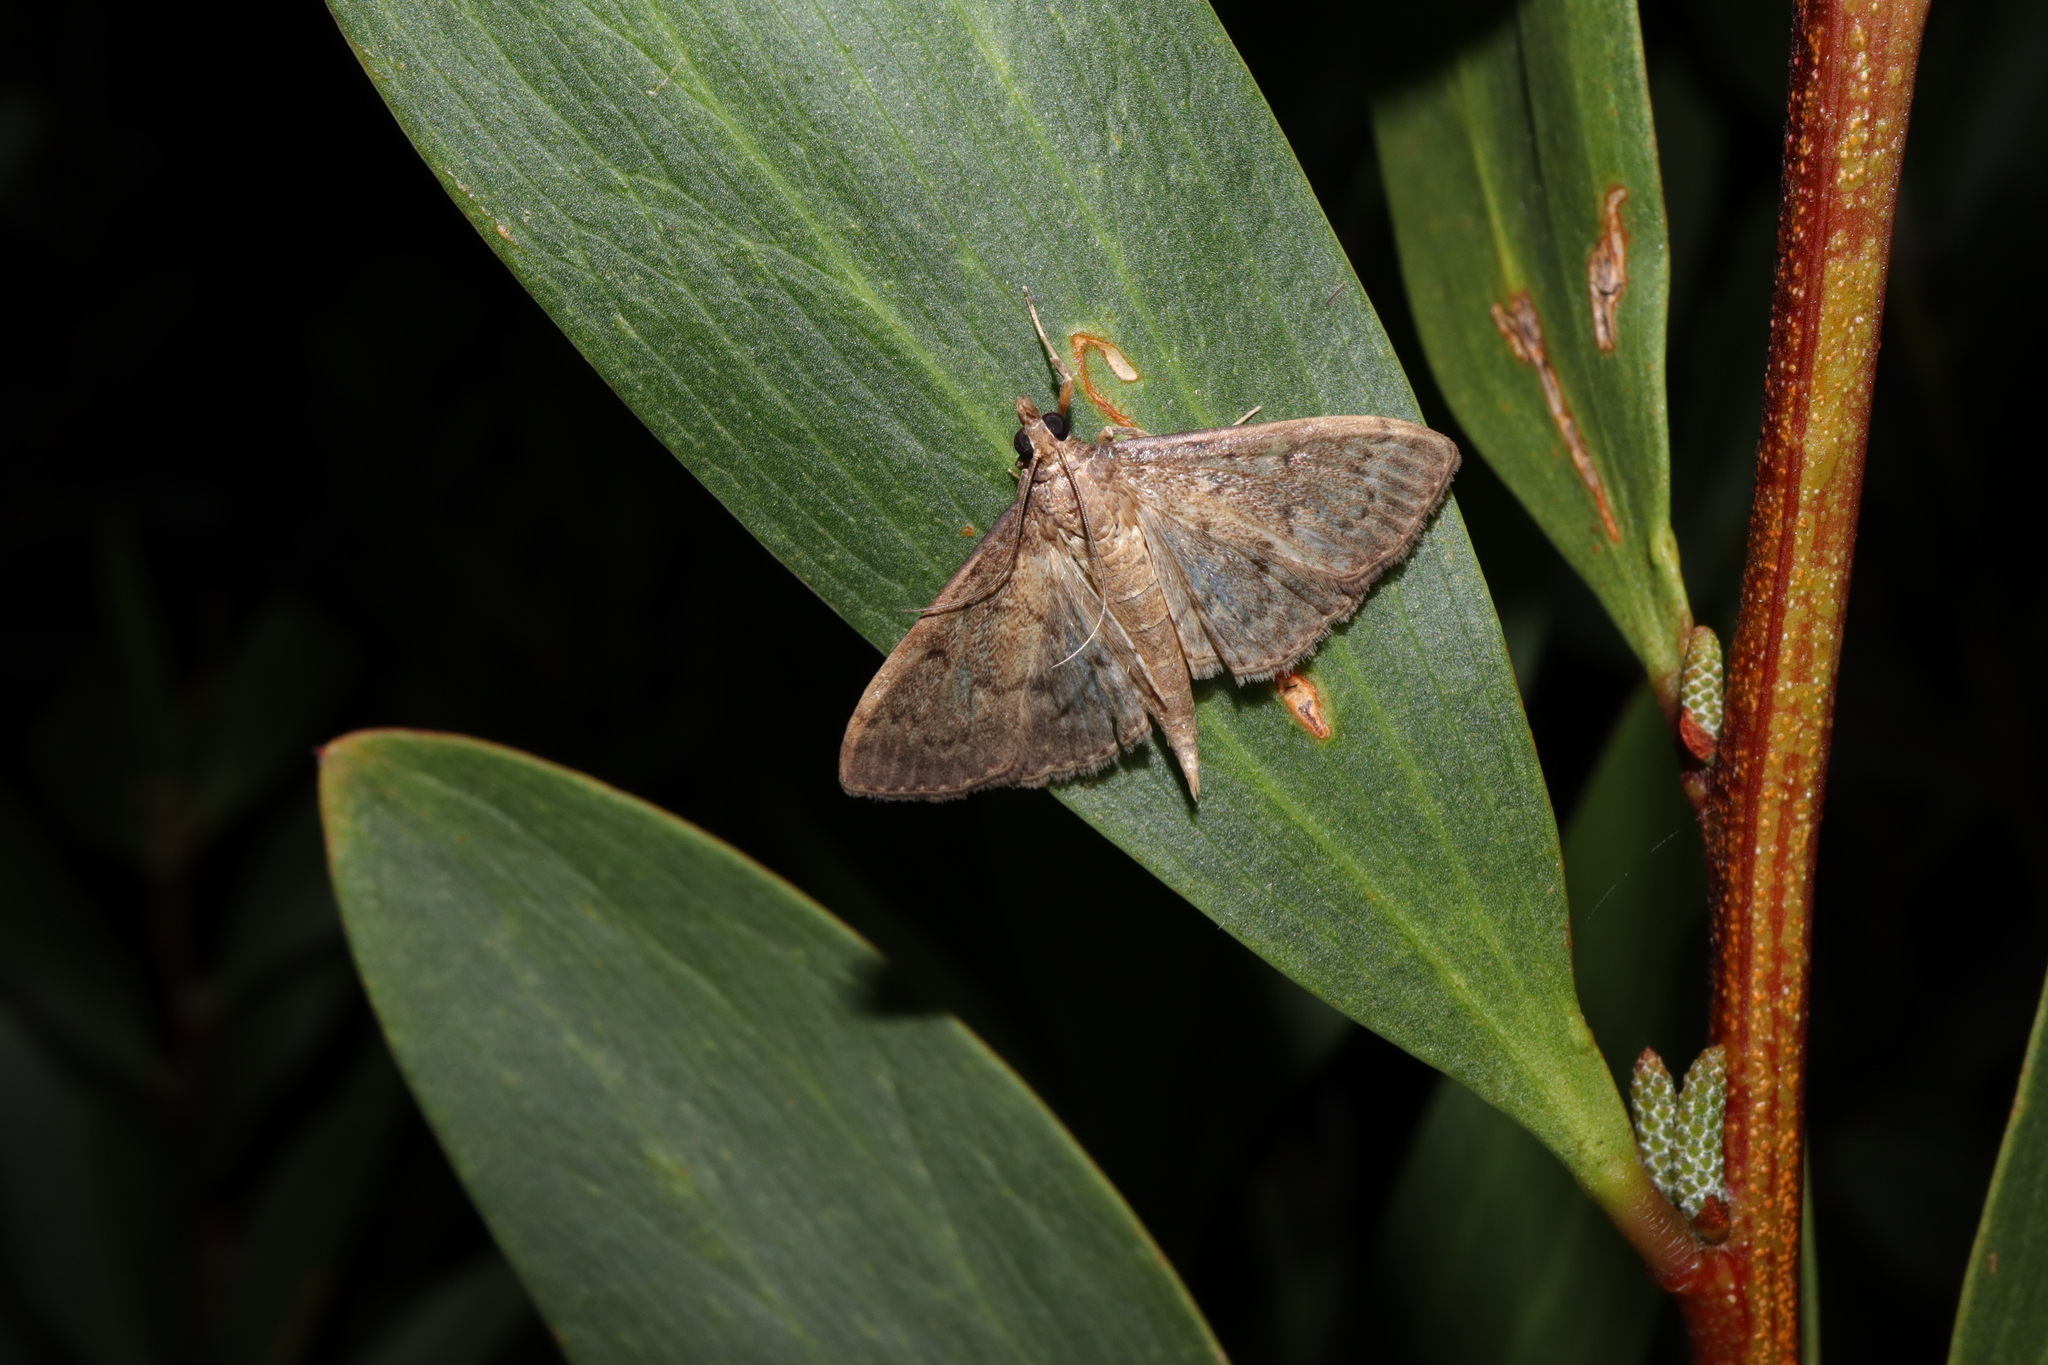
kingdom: Animalia
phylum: Arthropoda
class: Insecta
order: Lepidoptera
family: Crambidae
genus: Herpetogramma
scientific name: Herpetogramma licarsisalis
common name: Grass webworm
